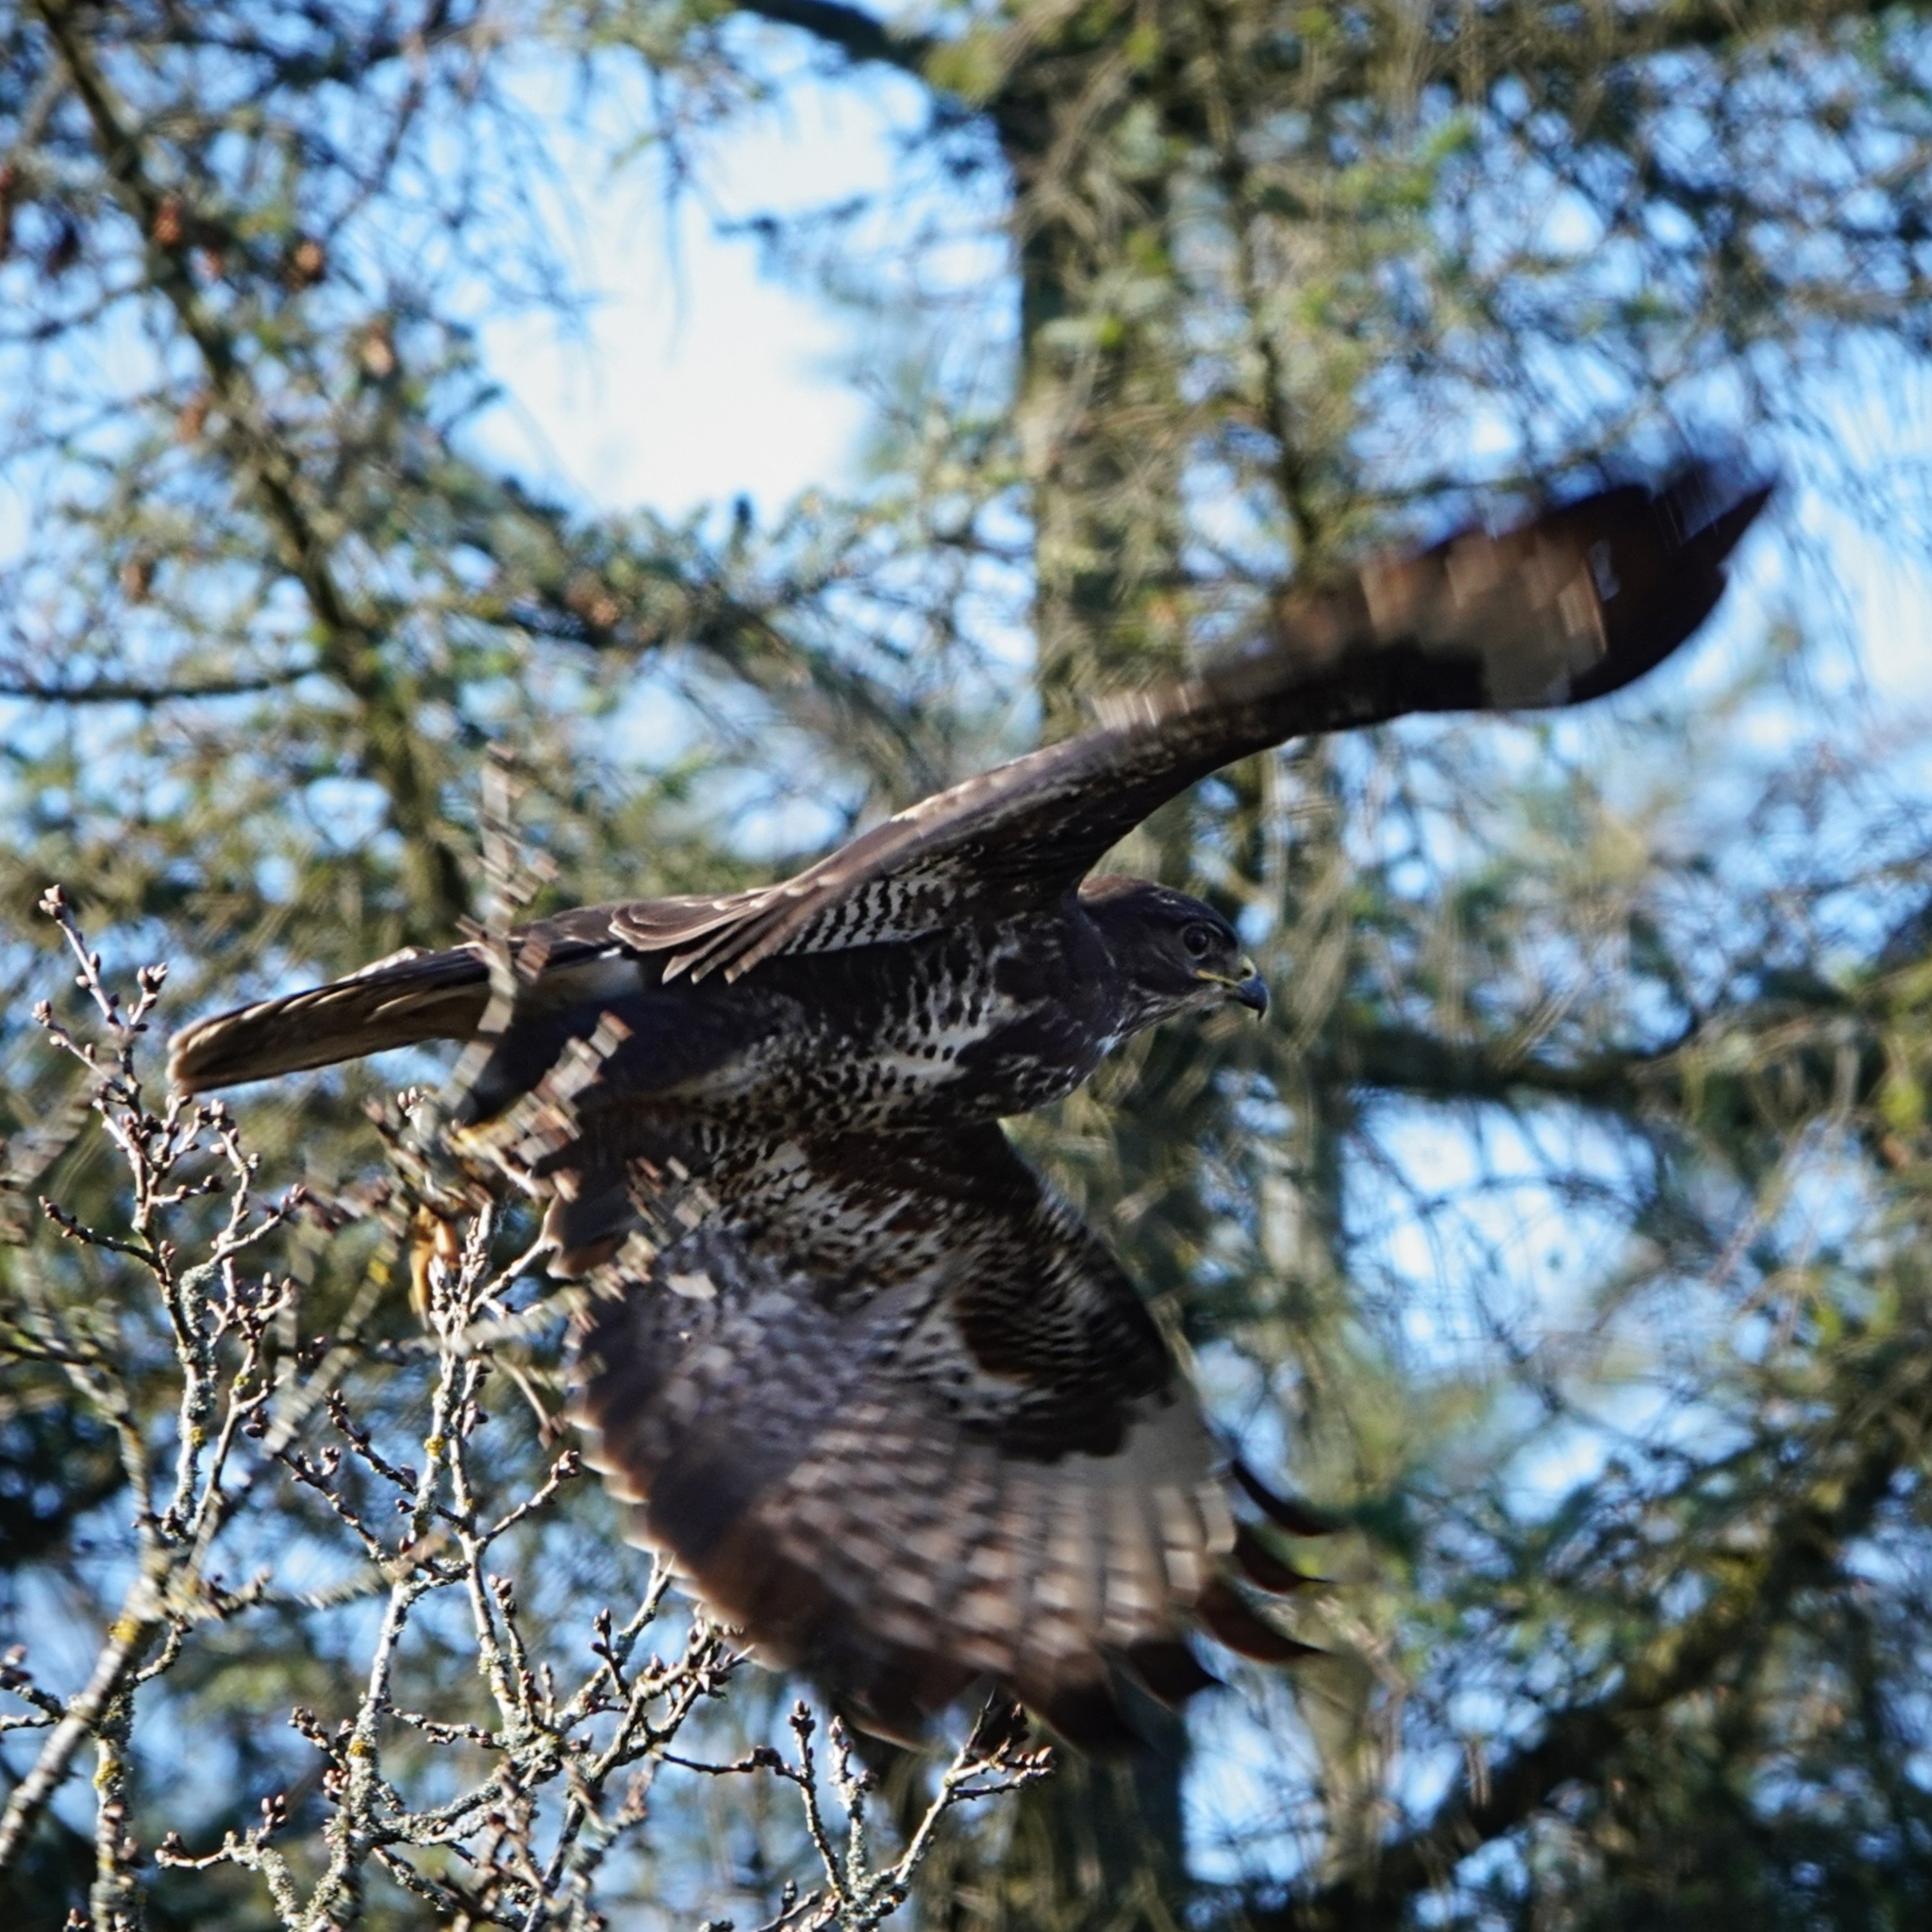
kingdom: Animalia
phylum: Chordata
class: Aves
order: Accipitriformes
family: Accipitridae
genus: Buteo
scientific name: Buteo buteo
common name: Common buzzard
